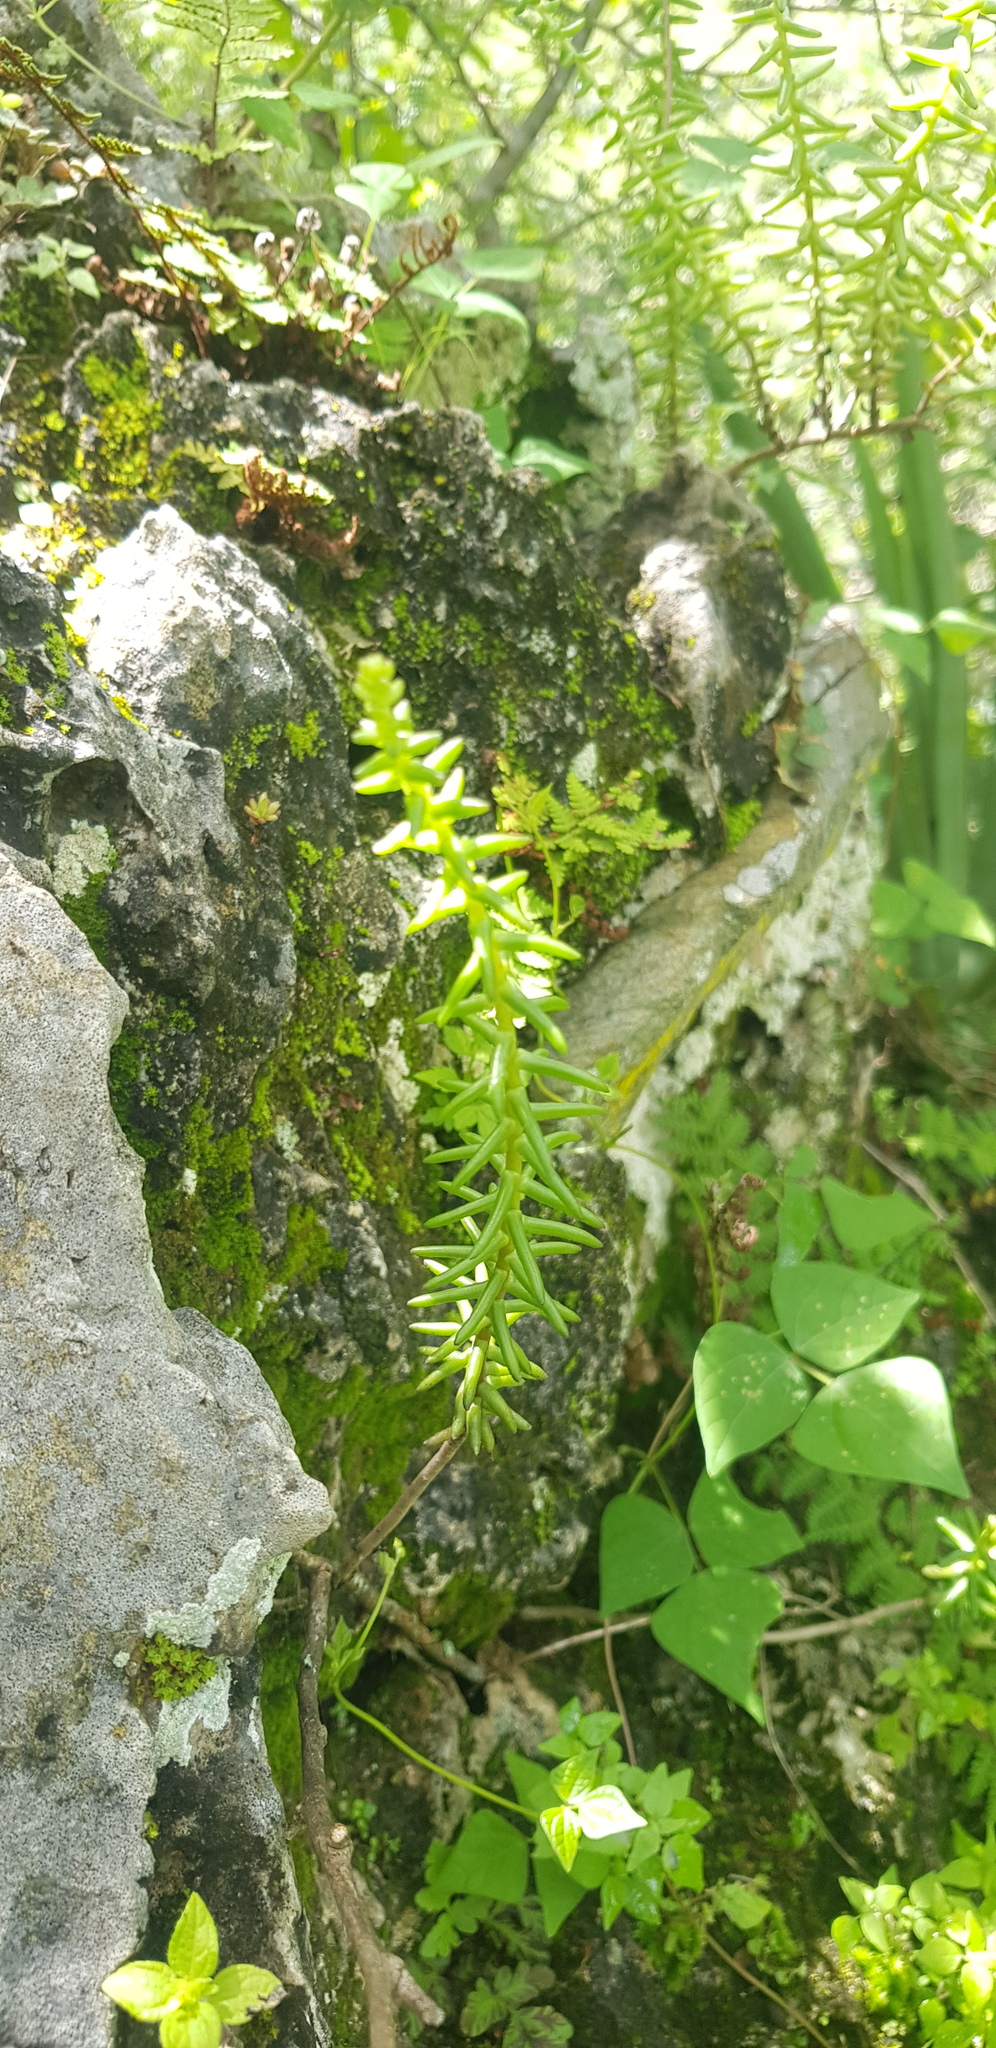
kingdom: Plantae
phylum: Tracheophyta
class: Magnoliopsida
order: Saxifragales
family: Crassulaceae
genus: Villadia
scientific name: Villadia guatemalensis
